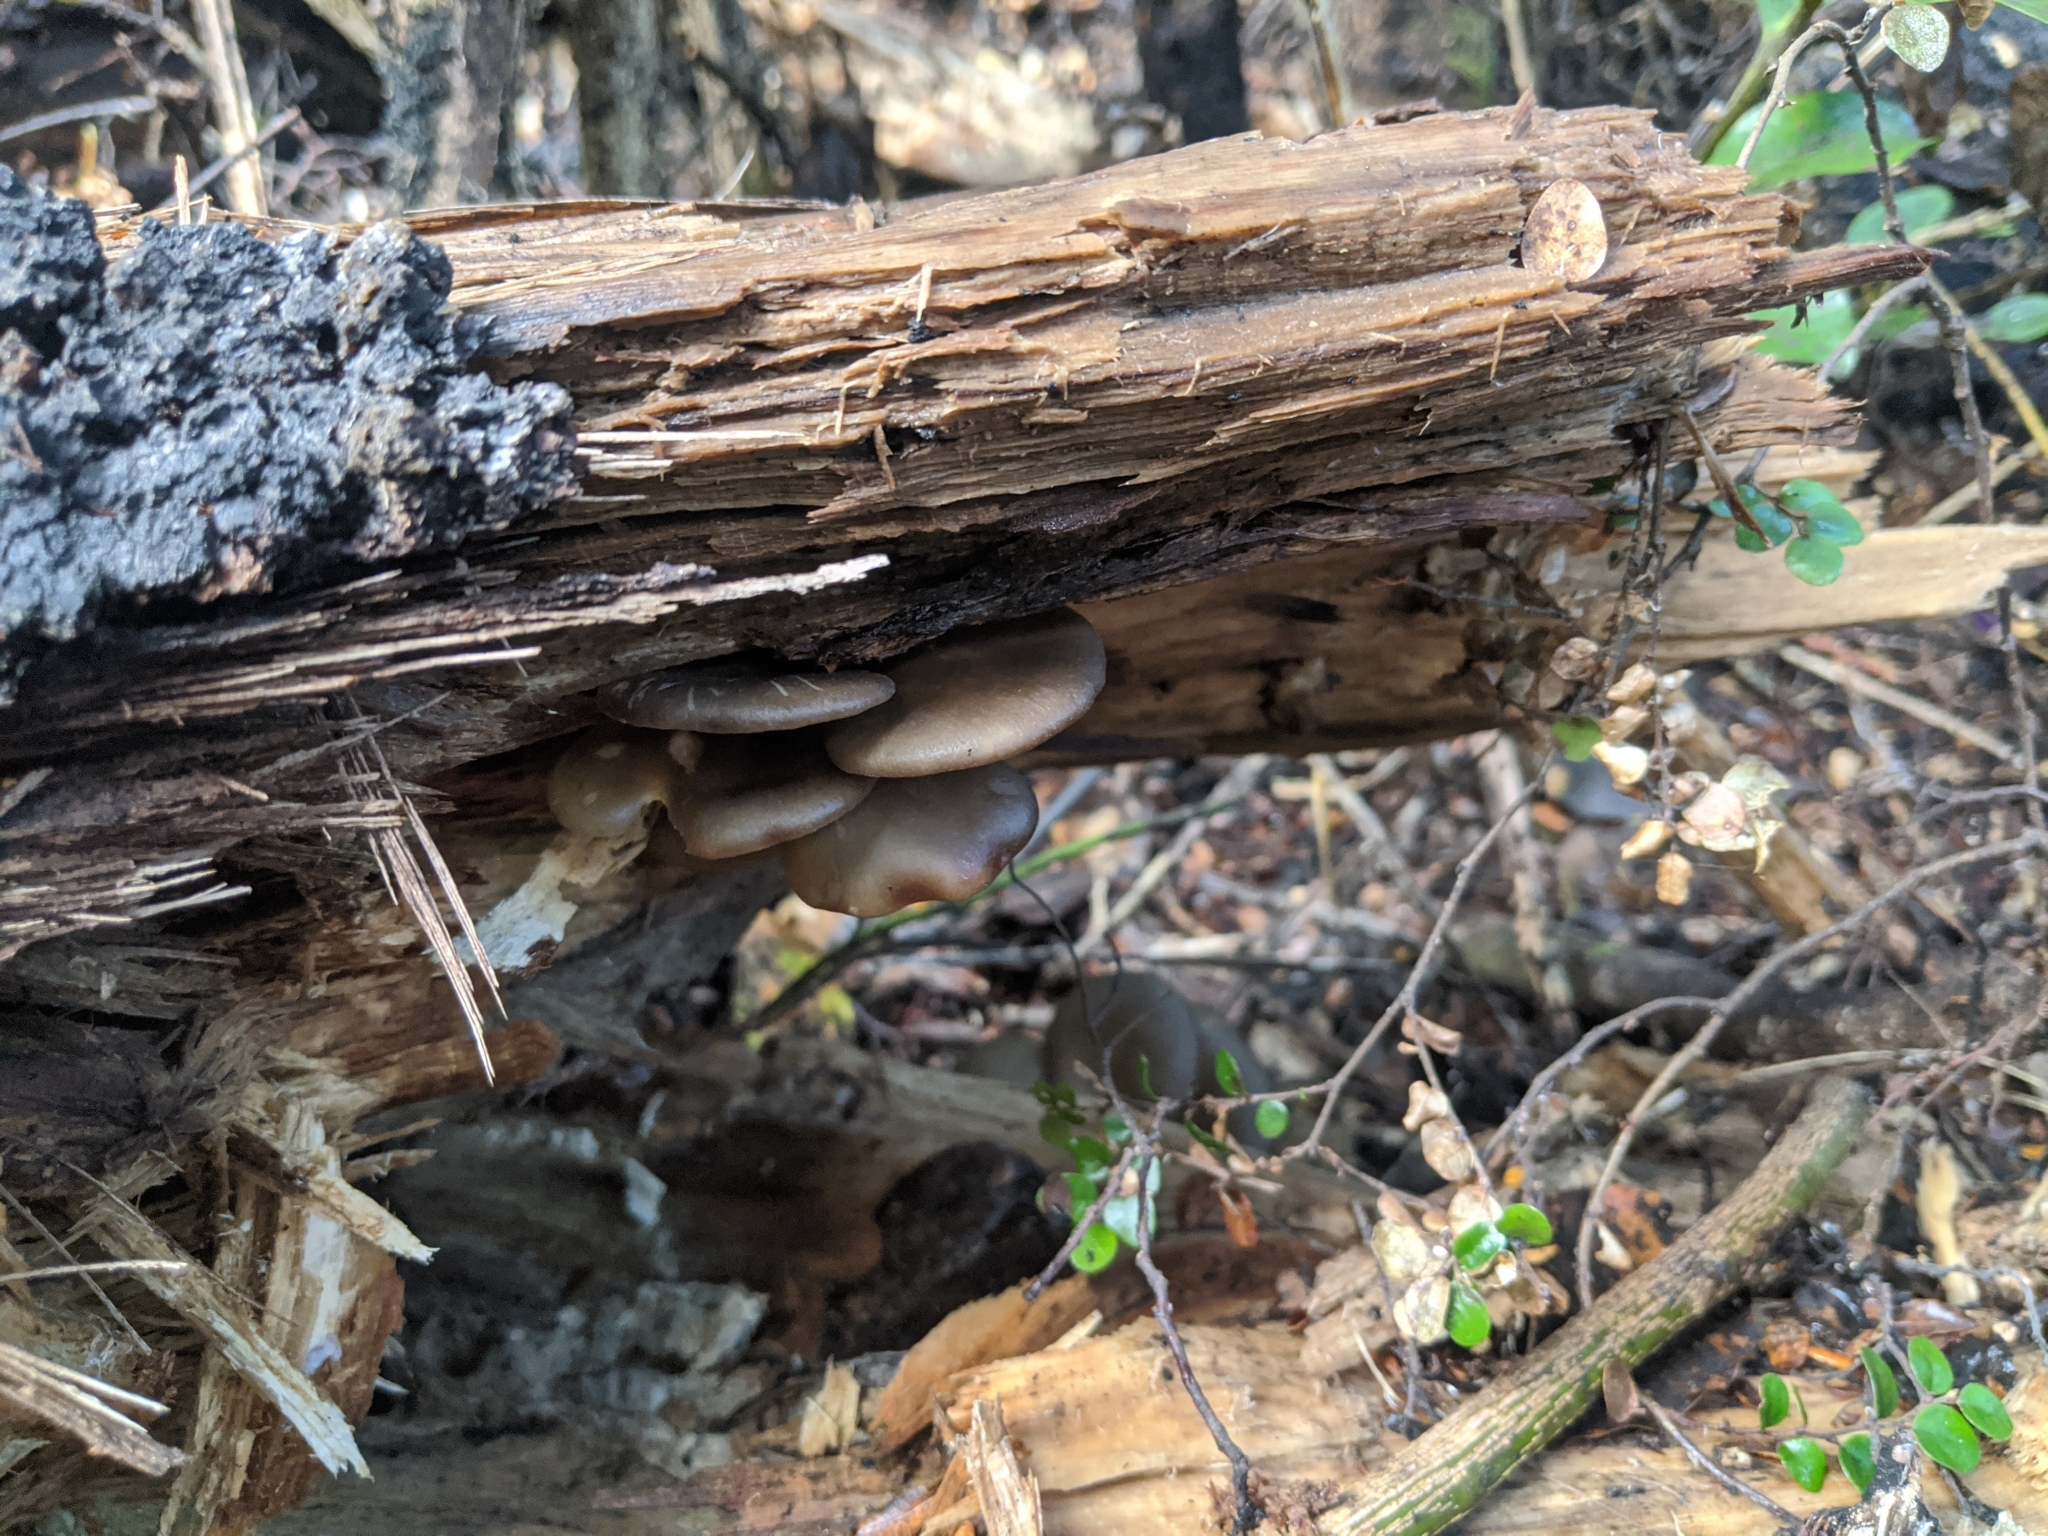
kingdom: Fungi
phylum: Basidiomycota
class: Agaricomycetes
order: Agaricales
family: Pleurotaceae
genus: Pleurotus
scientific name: Pleurotus purpureo-olivaceus
